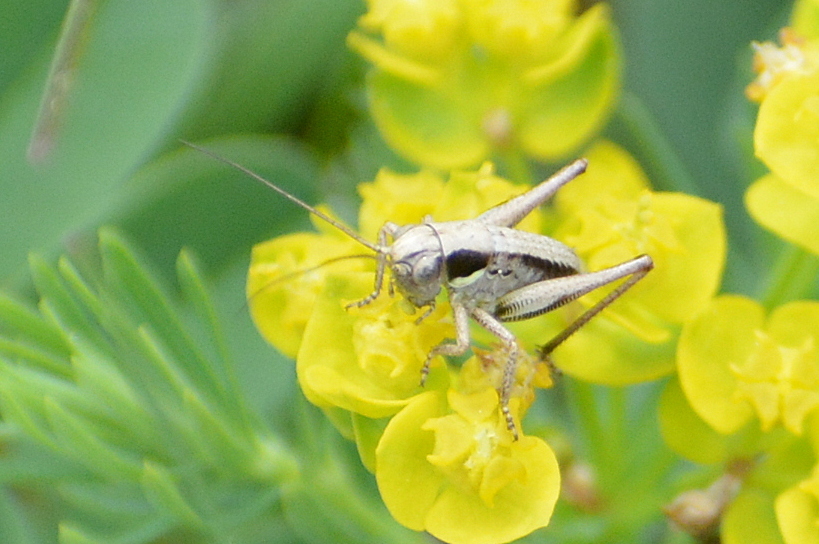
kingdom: Animalia
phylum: Arthropoda
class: Insecta
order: Orthoptera
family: Tettigoniidae
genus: Platycleis
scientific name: Platycleis albopunctata
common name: Grey bush-cricket
